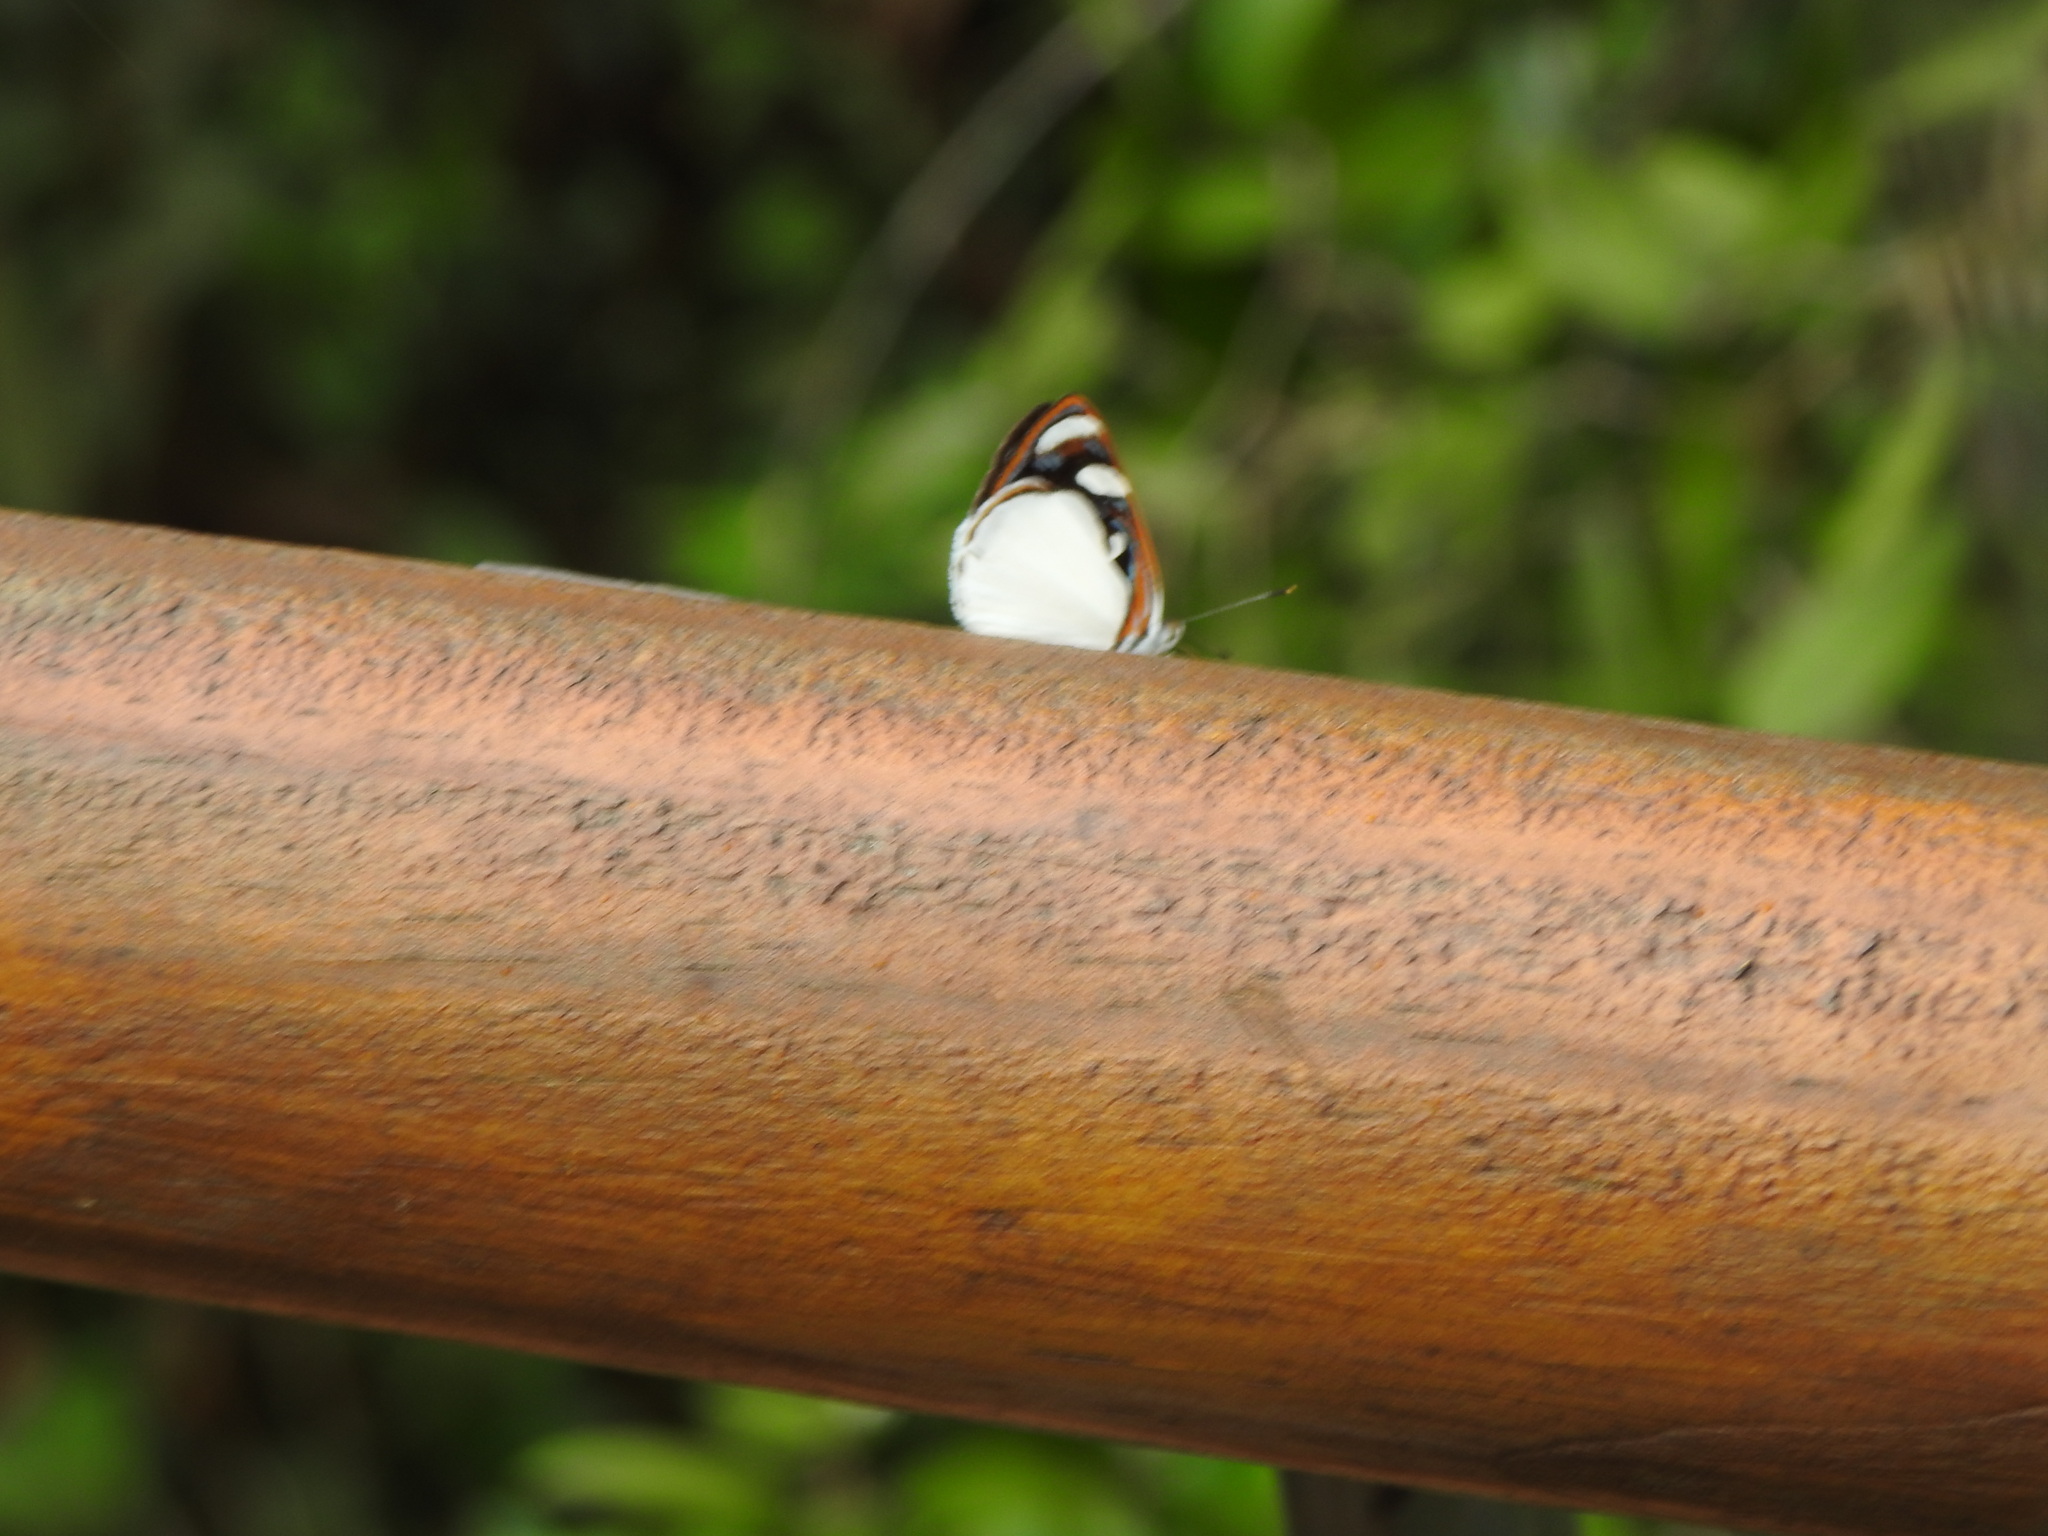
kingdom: Animalia
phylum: Arthropoda
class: Insecta
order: Lepidoptera
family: Nymphalidae
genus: Dynamine
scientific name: Dynamine coenus
